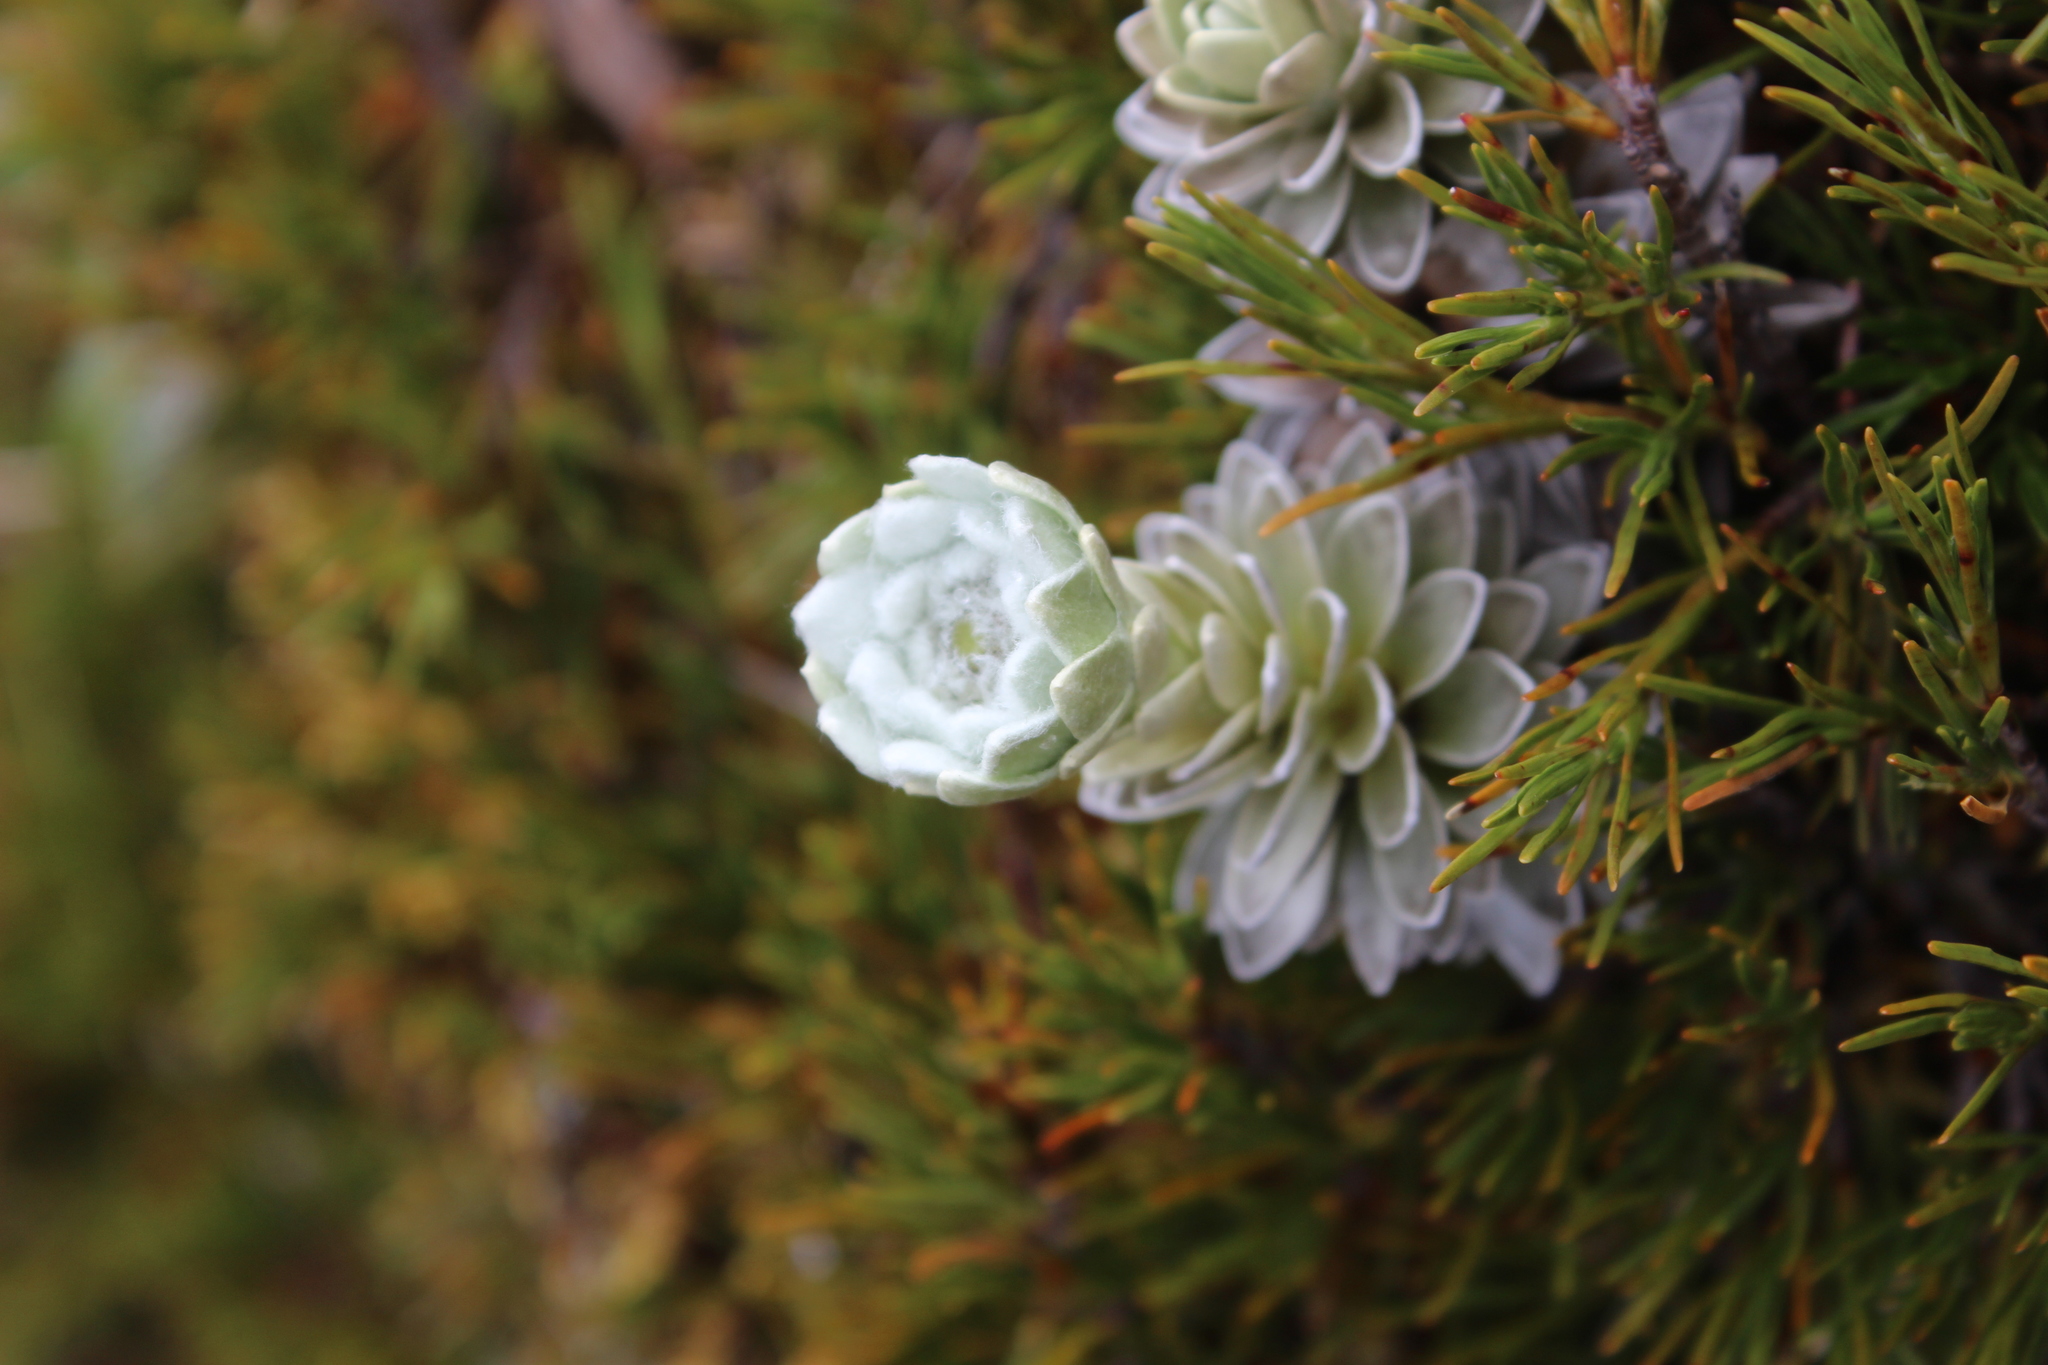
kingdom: Plantae
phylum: Tracheophyta
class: Magnoliopsida
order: Asterales
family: Asteraceae
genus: Leucogenes
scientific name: Leucogenes leontopodium
